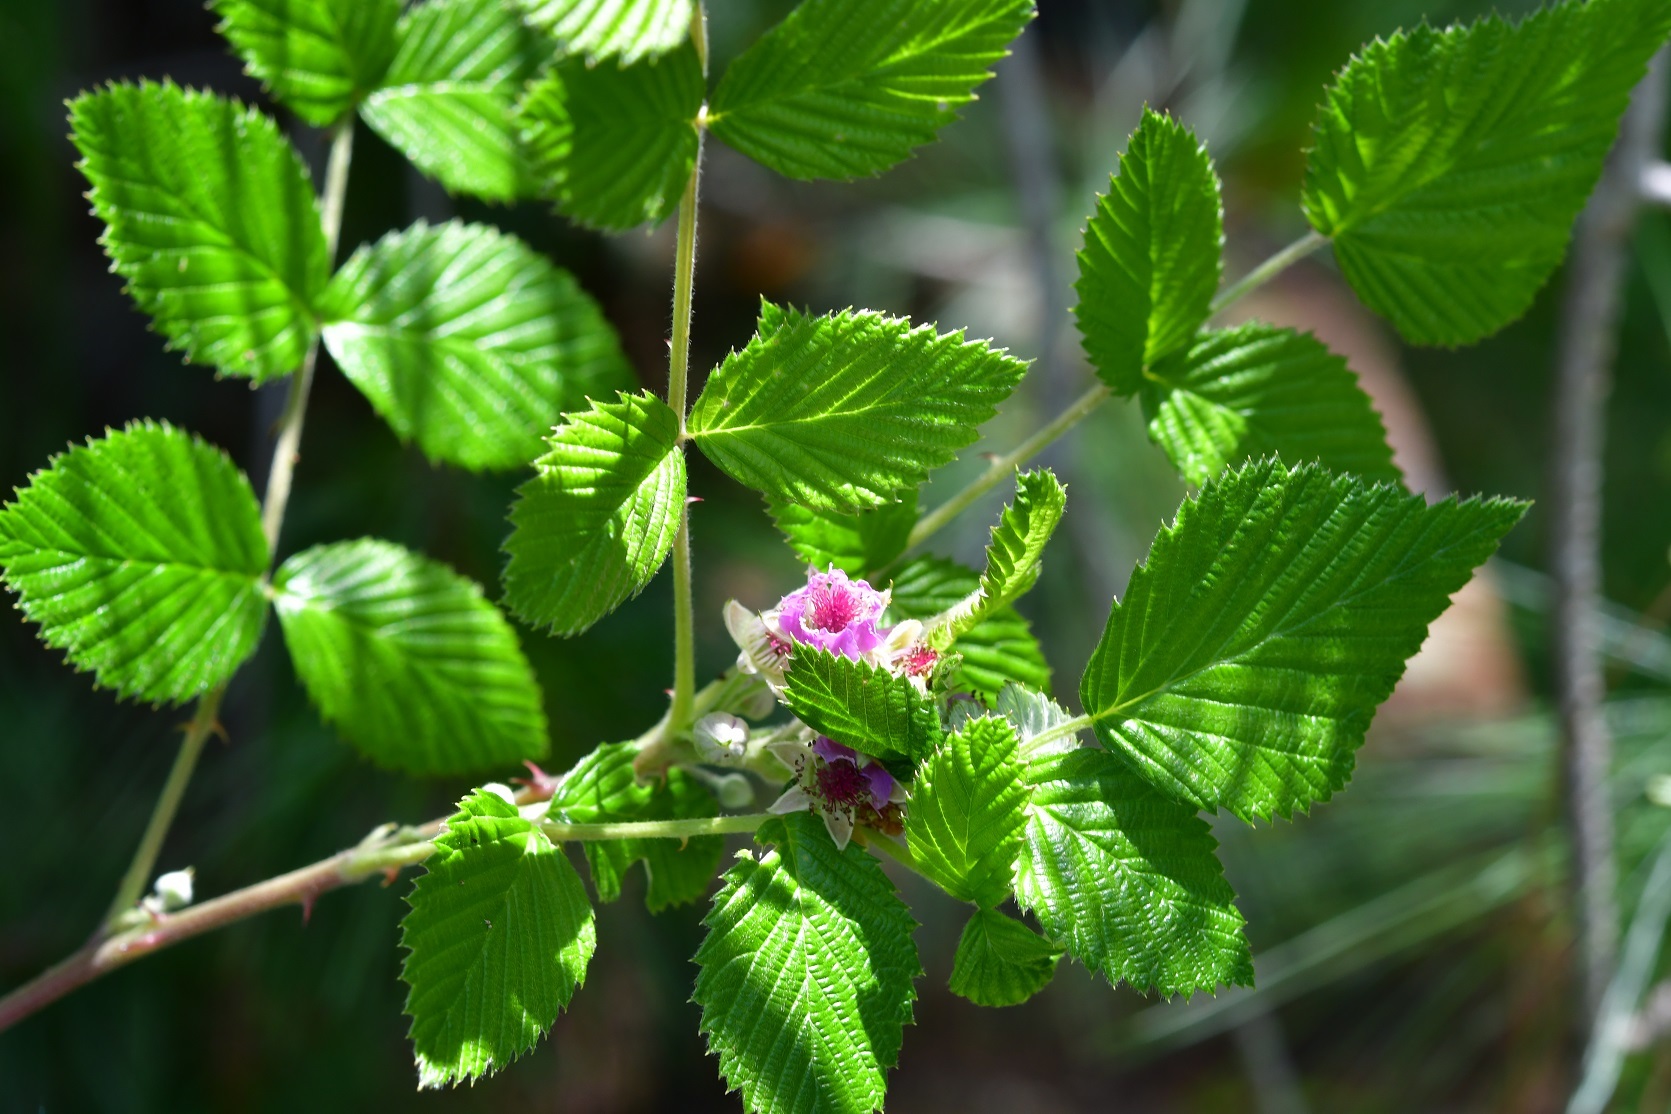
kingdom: Plantae
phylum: Tracheophyta
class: Magnoliopsida
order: Rosales
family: Rosaceae
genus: Rubus
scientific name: Rubus niveus
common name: Snowpeaks raspberry
